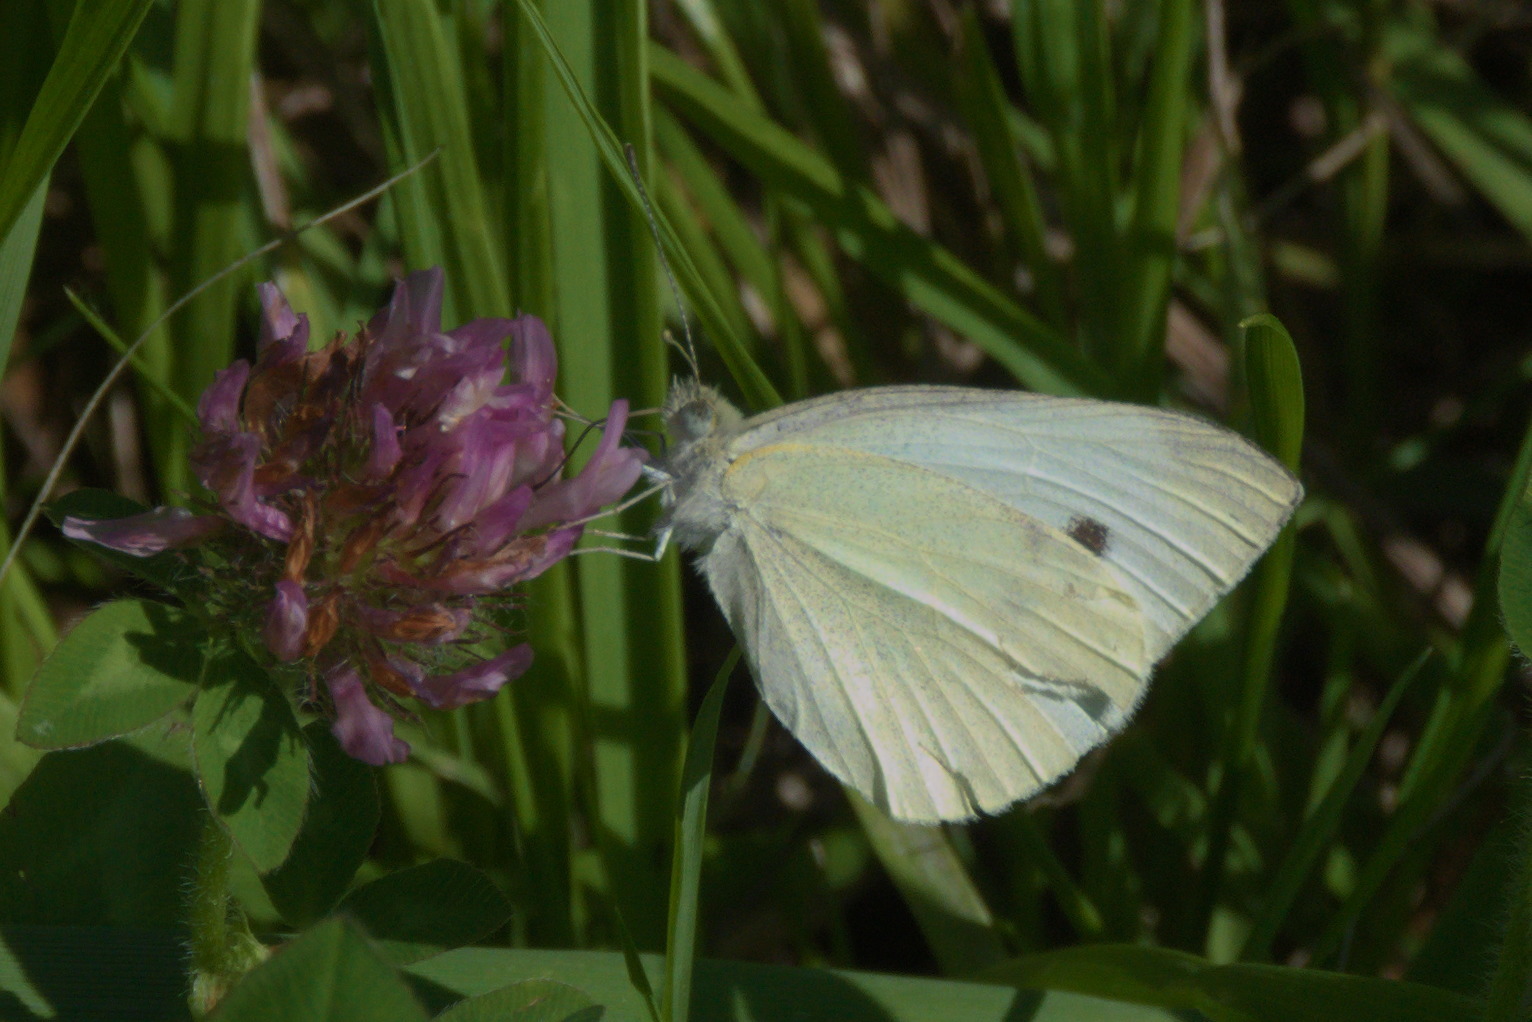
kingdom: Animalia
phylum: Arthropoda
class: Insecta
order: Lepidoptera
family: Pieridae
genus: Pieris
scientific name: Pieris rapae
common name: Small white
